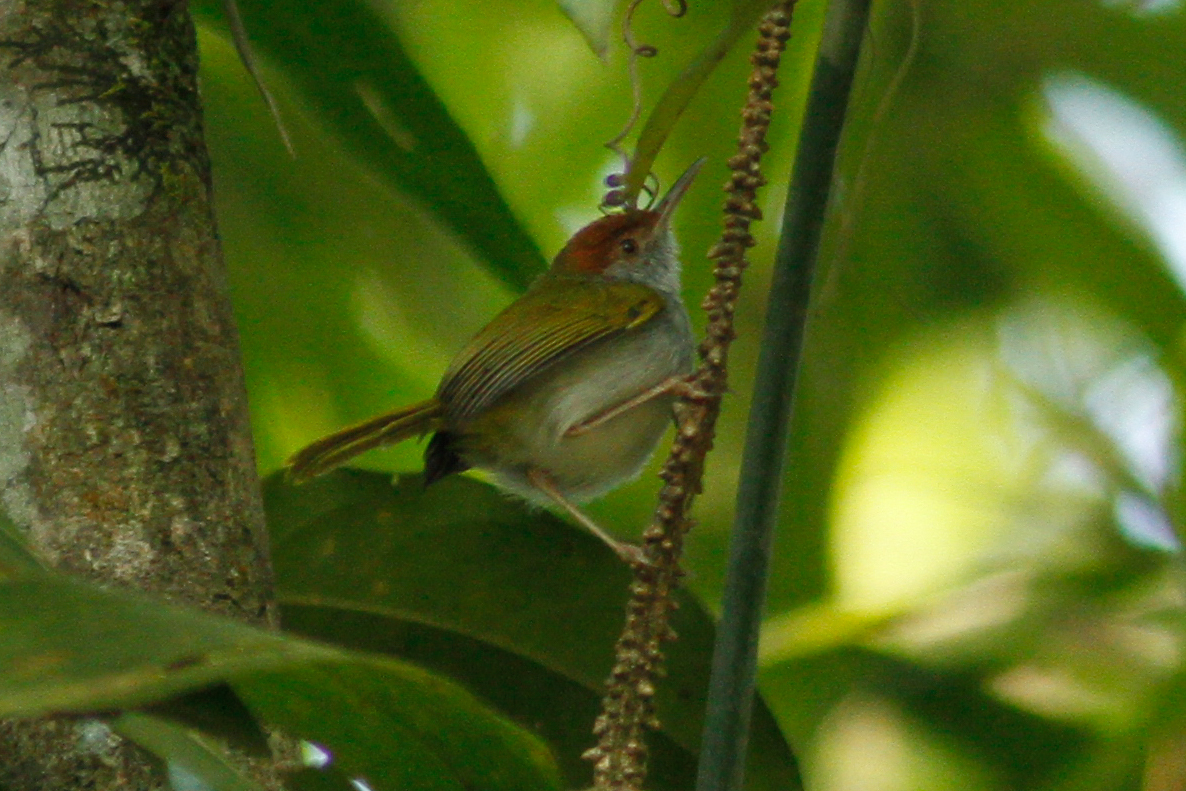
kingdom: Animalia
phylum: Chordata
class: Aves
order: Passeriformes
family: Cisticolidae
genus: Orthotomus
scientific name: Orthotomus atrogularis
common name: Dark-necked tailorbird
